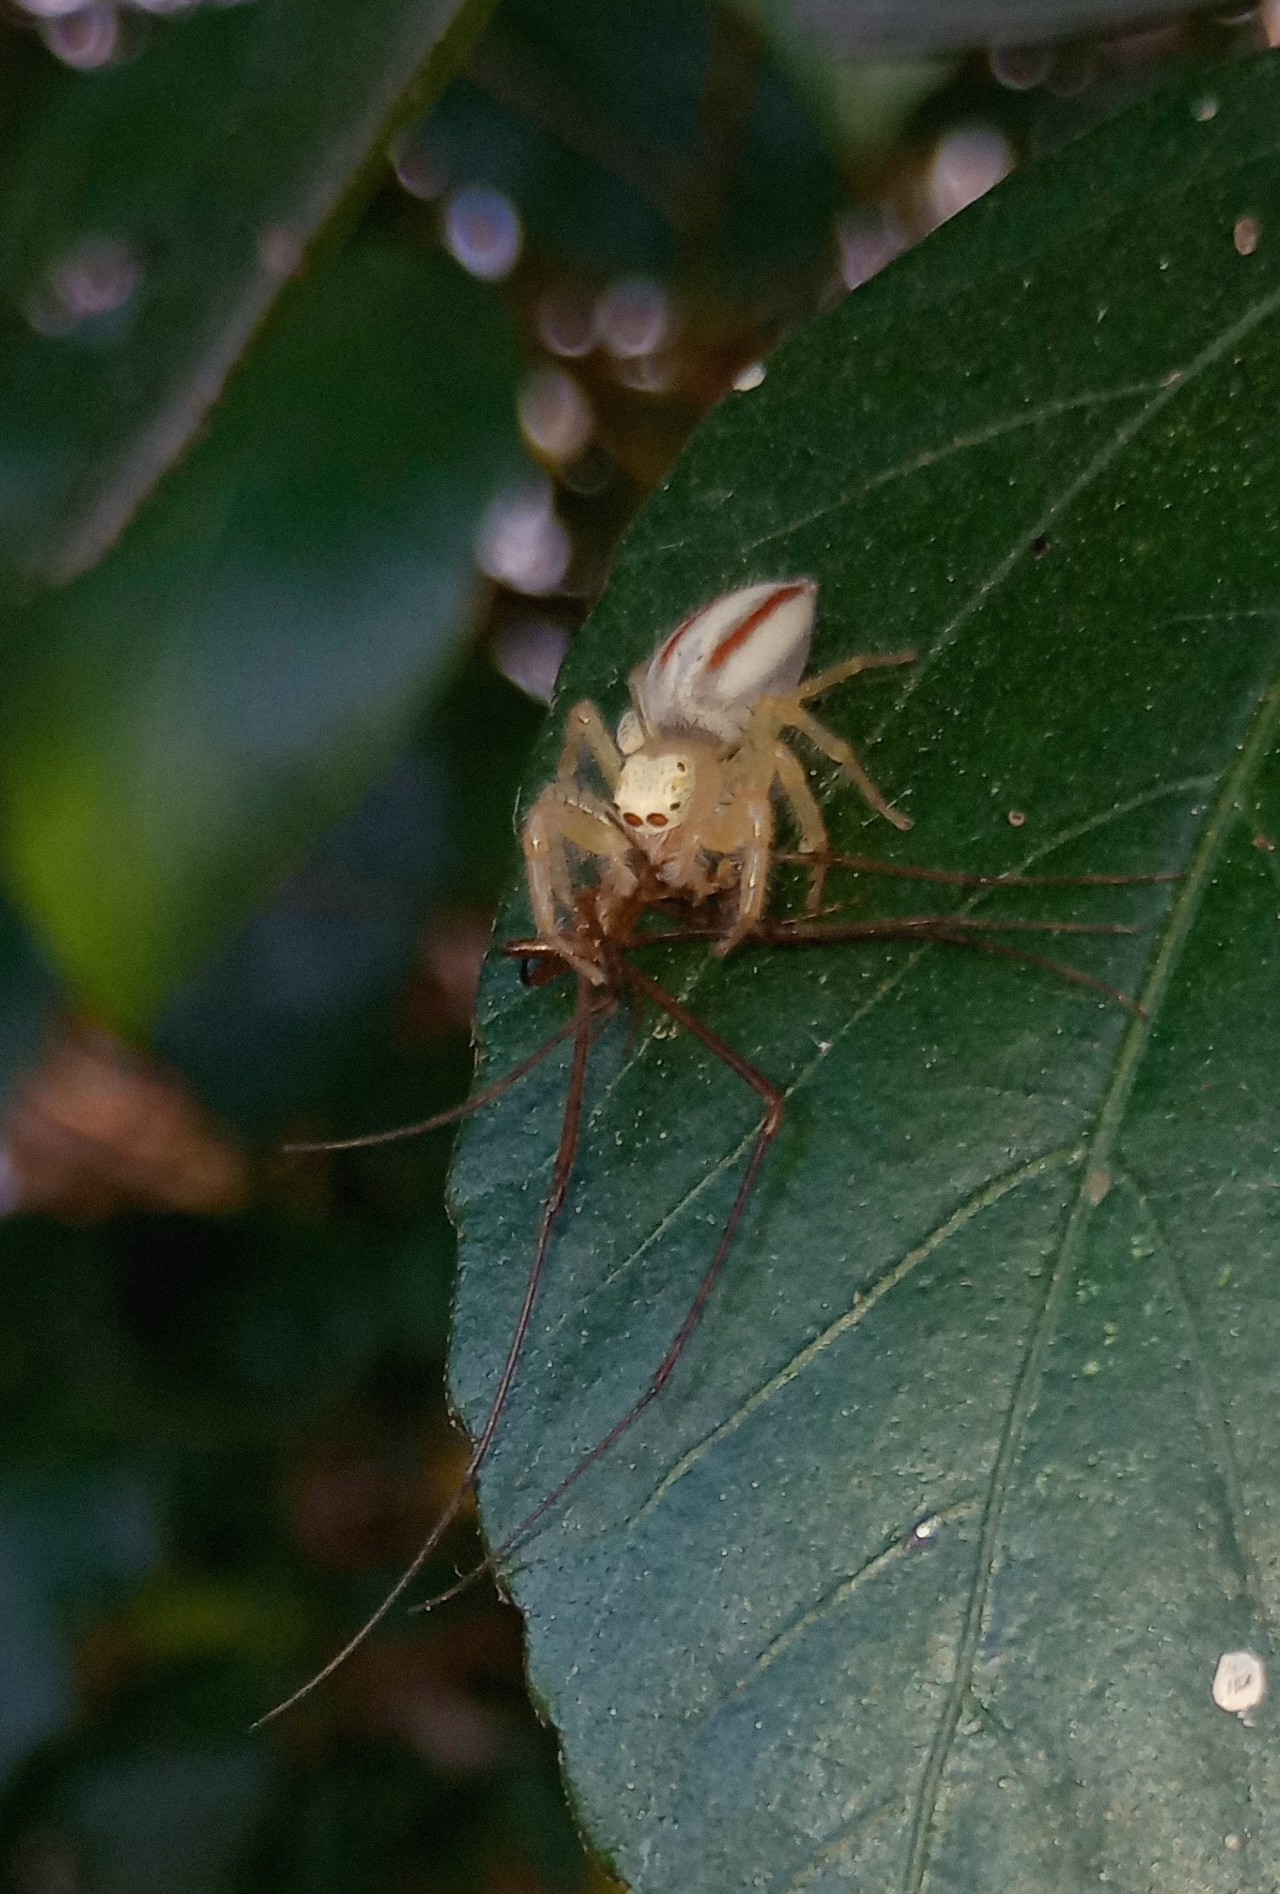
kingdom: Animalia
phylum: Arthropoda
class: Arachnida
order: Araneae
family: Salticidae
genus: Telamonia
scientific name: Telamonia dimidiata
